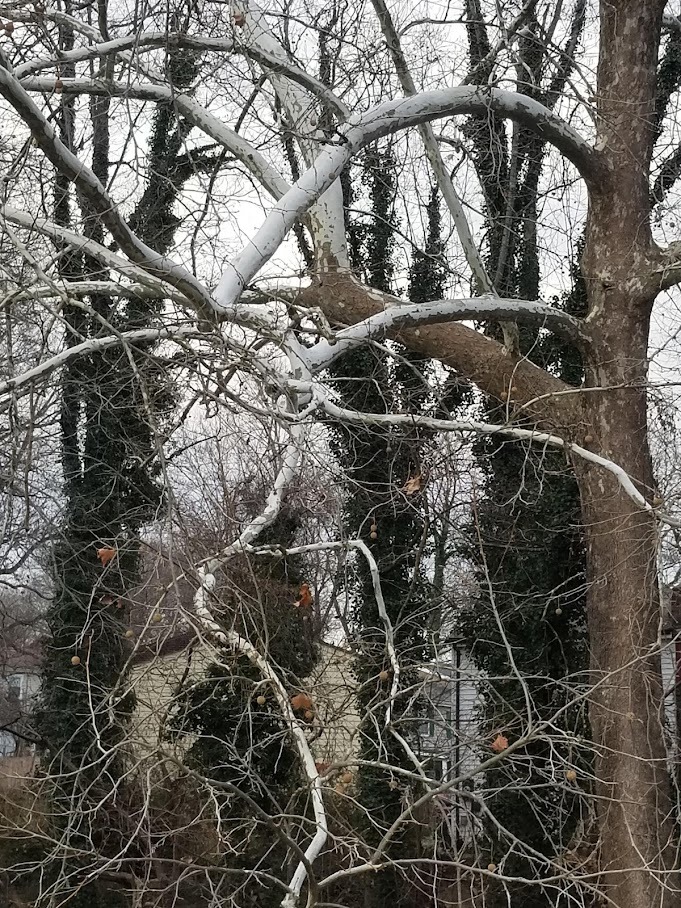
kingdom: Plantae
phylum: Tracheophyta
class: Magnoliopsida
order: Proteales
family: Platanaceae
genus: Platanus
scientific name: Platanus occidentalis
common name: American sycamore
